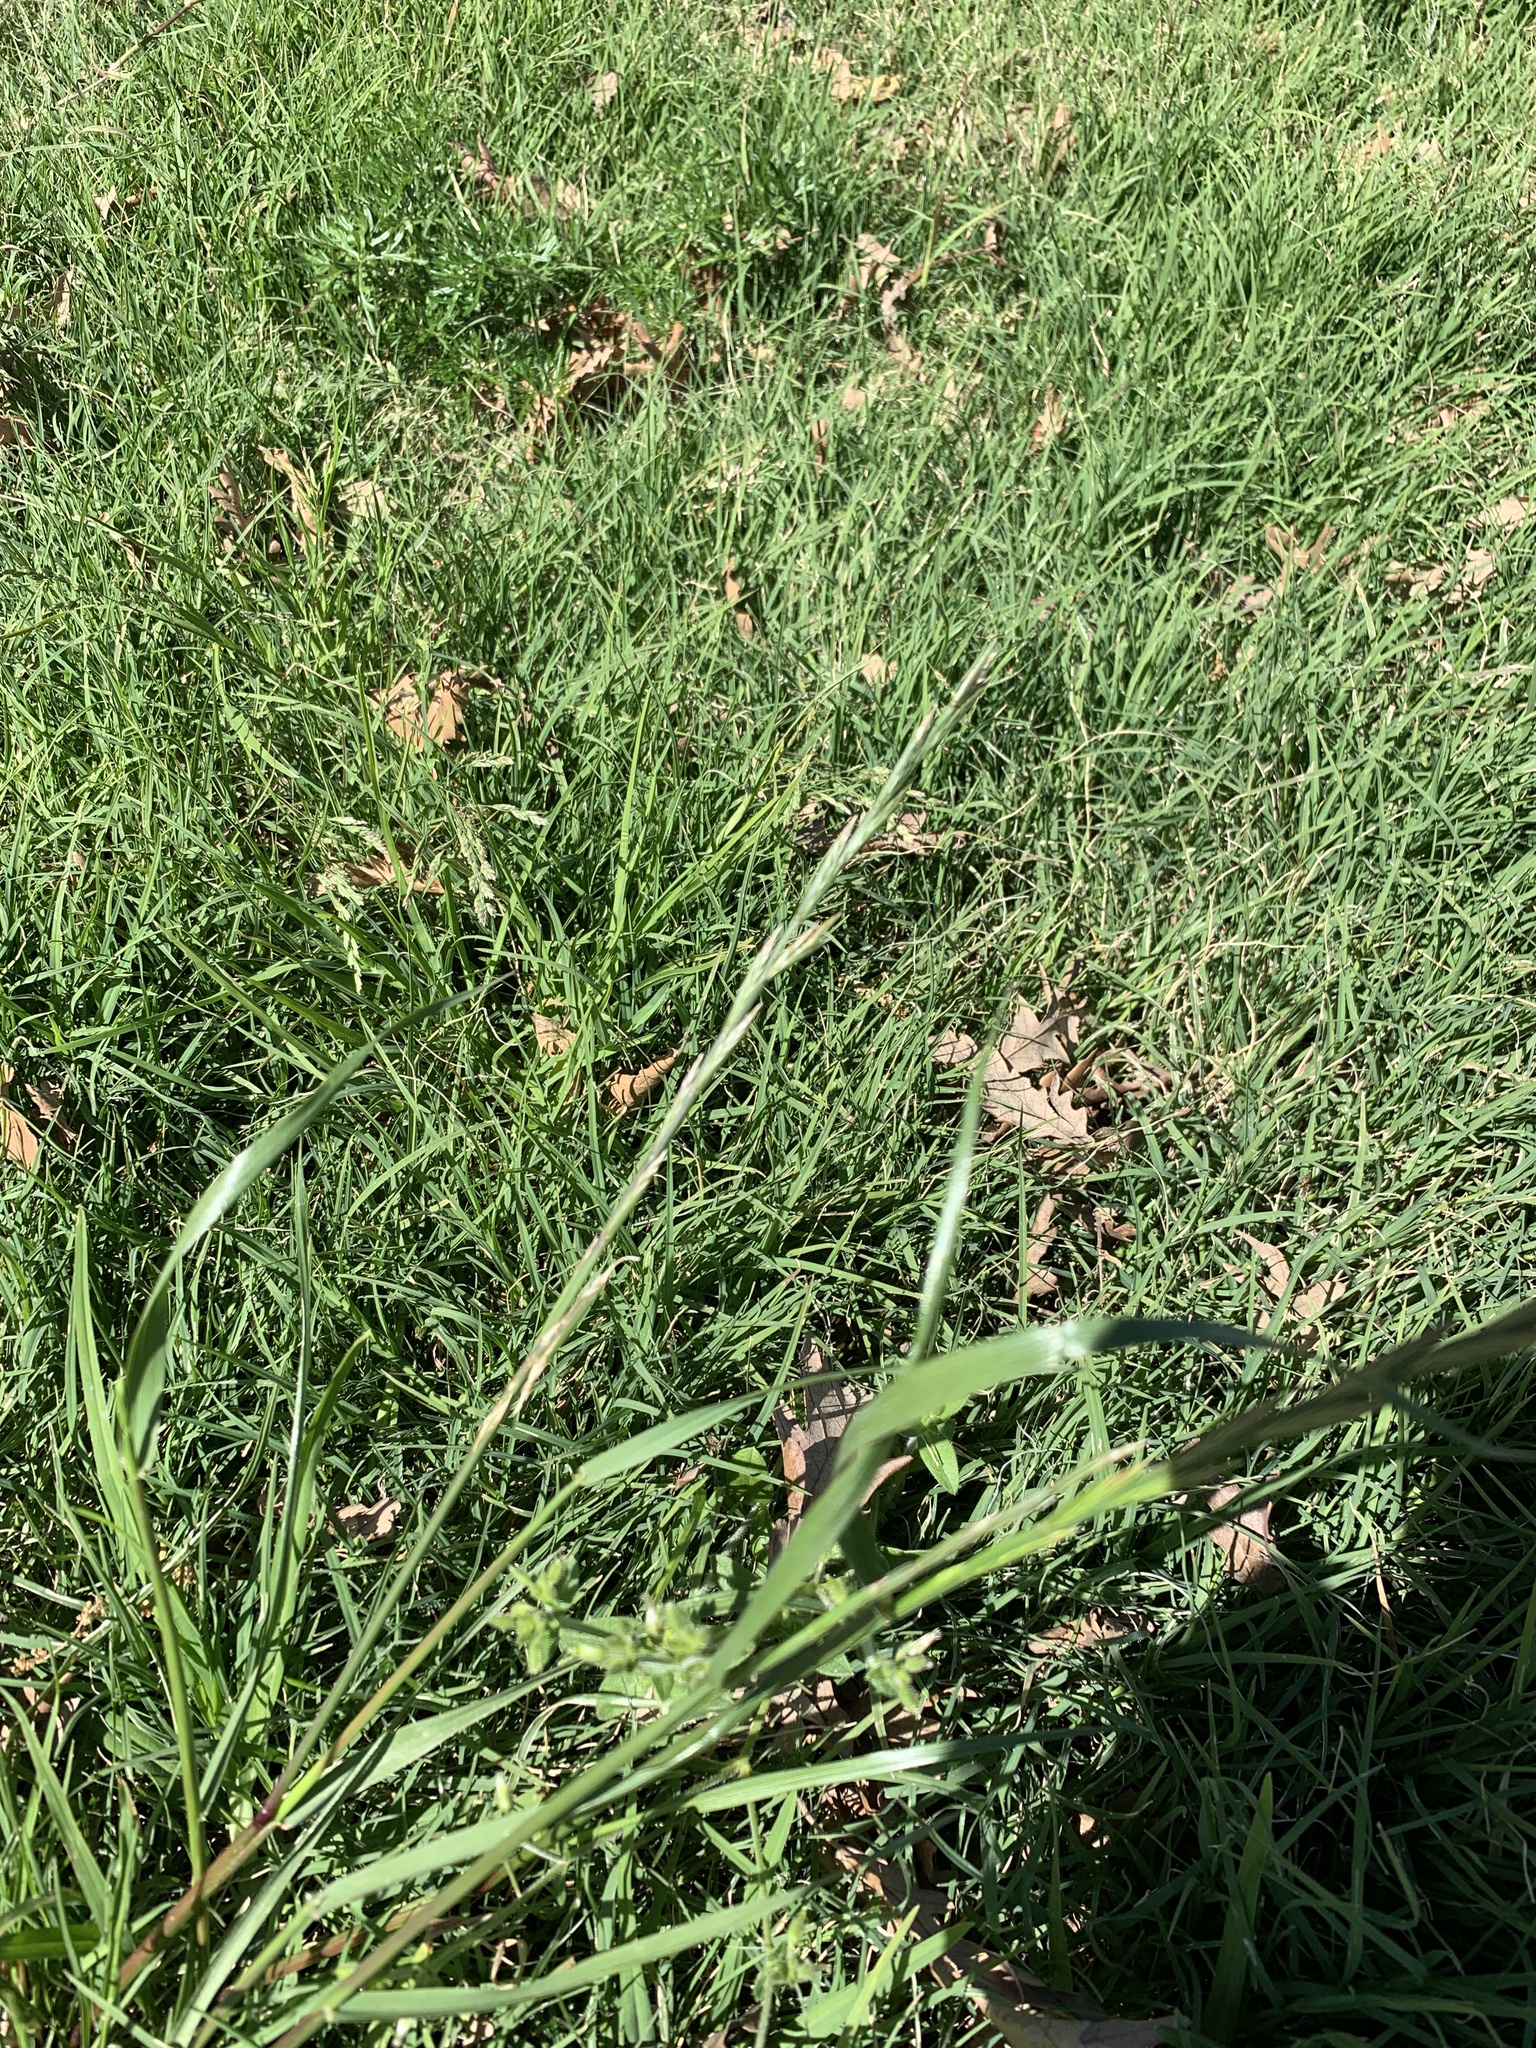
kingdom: Plantae
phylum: Tracheophyta
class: Liliopsida
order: Poales
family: Poaceae
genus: Lolium
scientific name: Lolium perenne
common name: Perennial ryegrass
